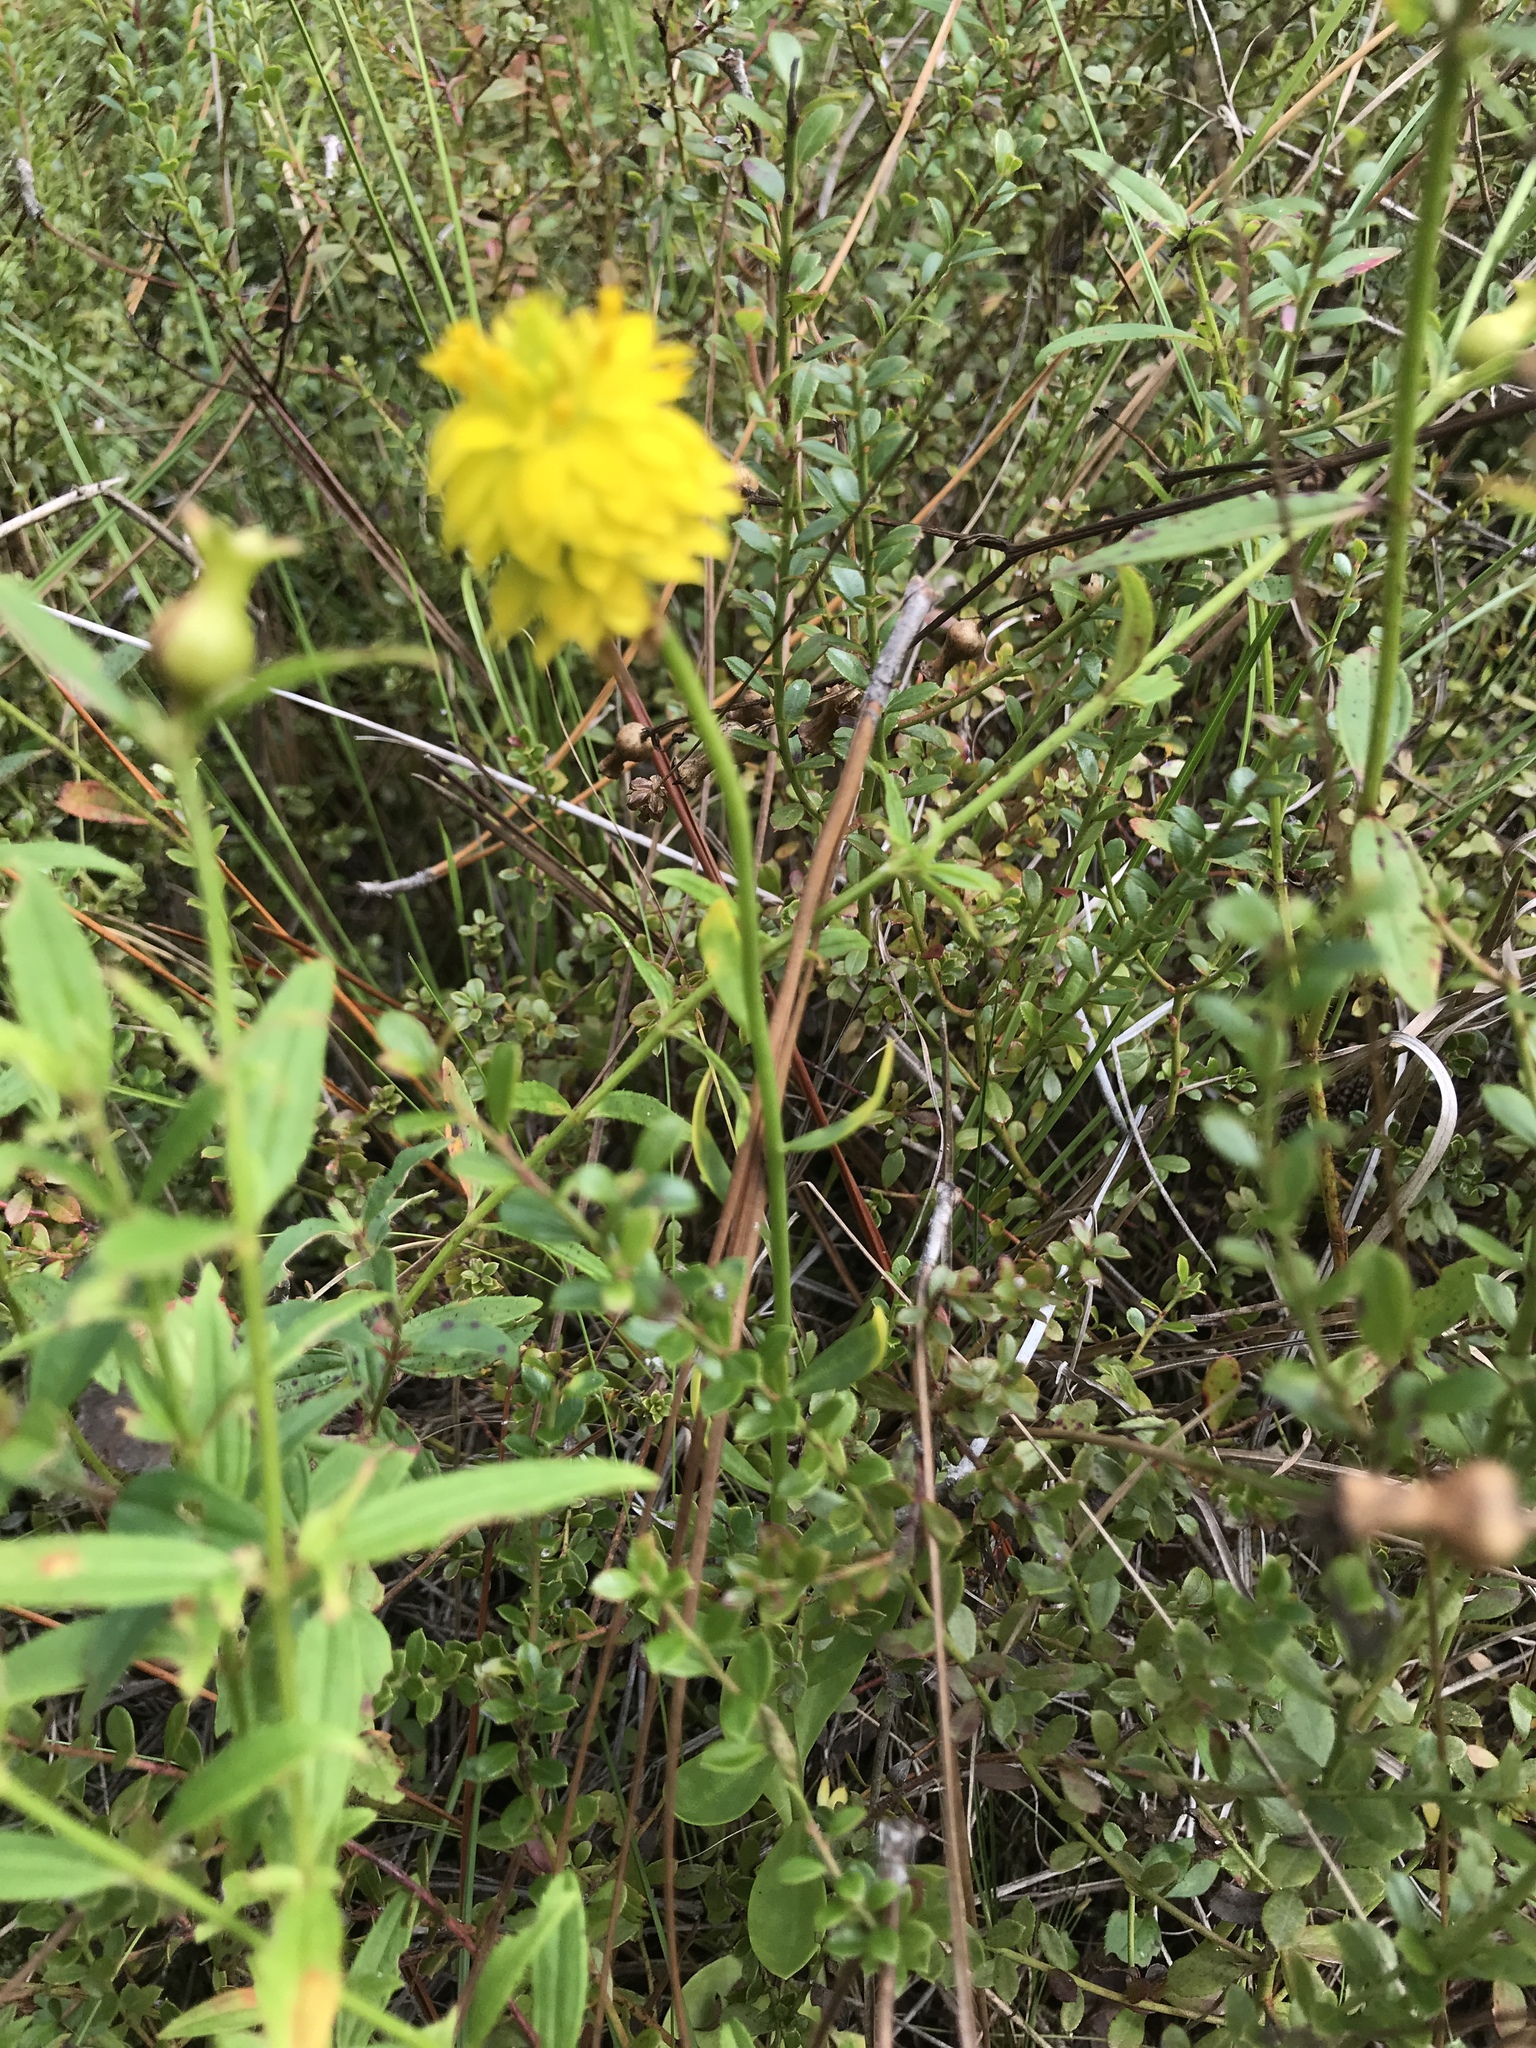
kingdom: Plantae
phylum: Tracheophyta
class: Magnoliopsida
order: Fabales
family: Polygalaceae
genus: Polygala
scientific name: Polygala rugelii
